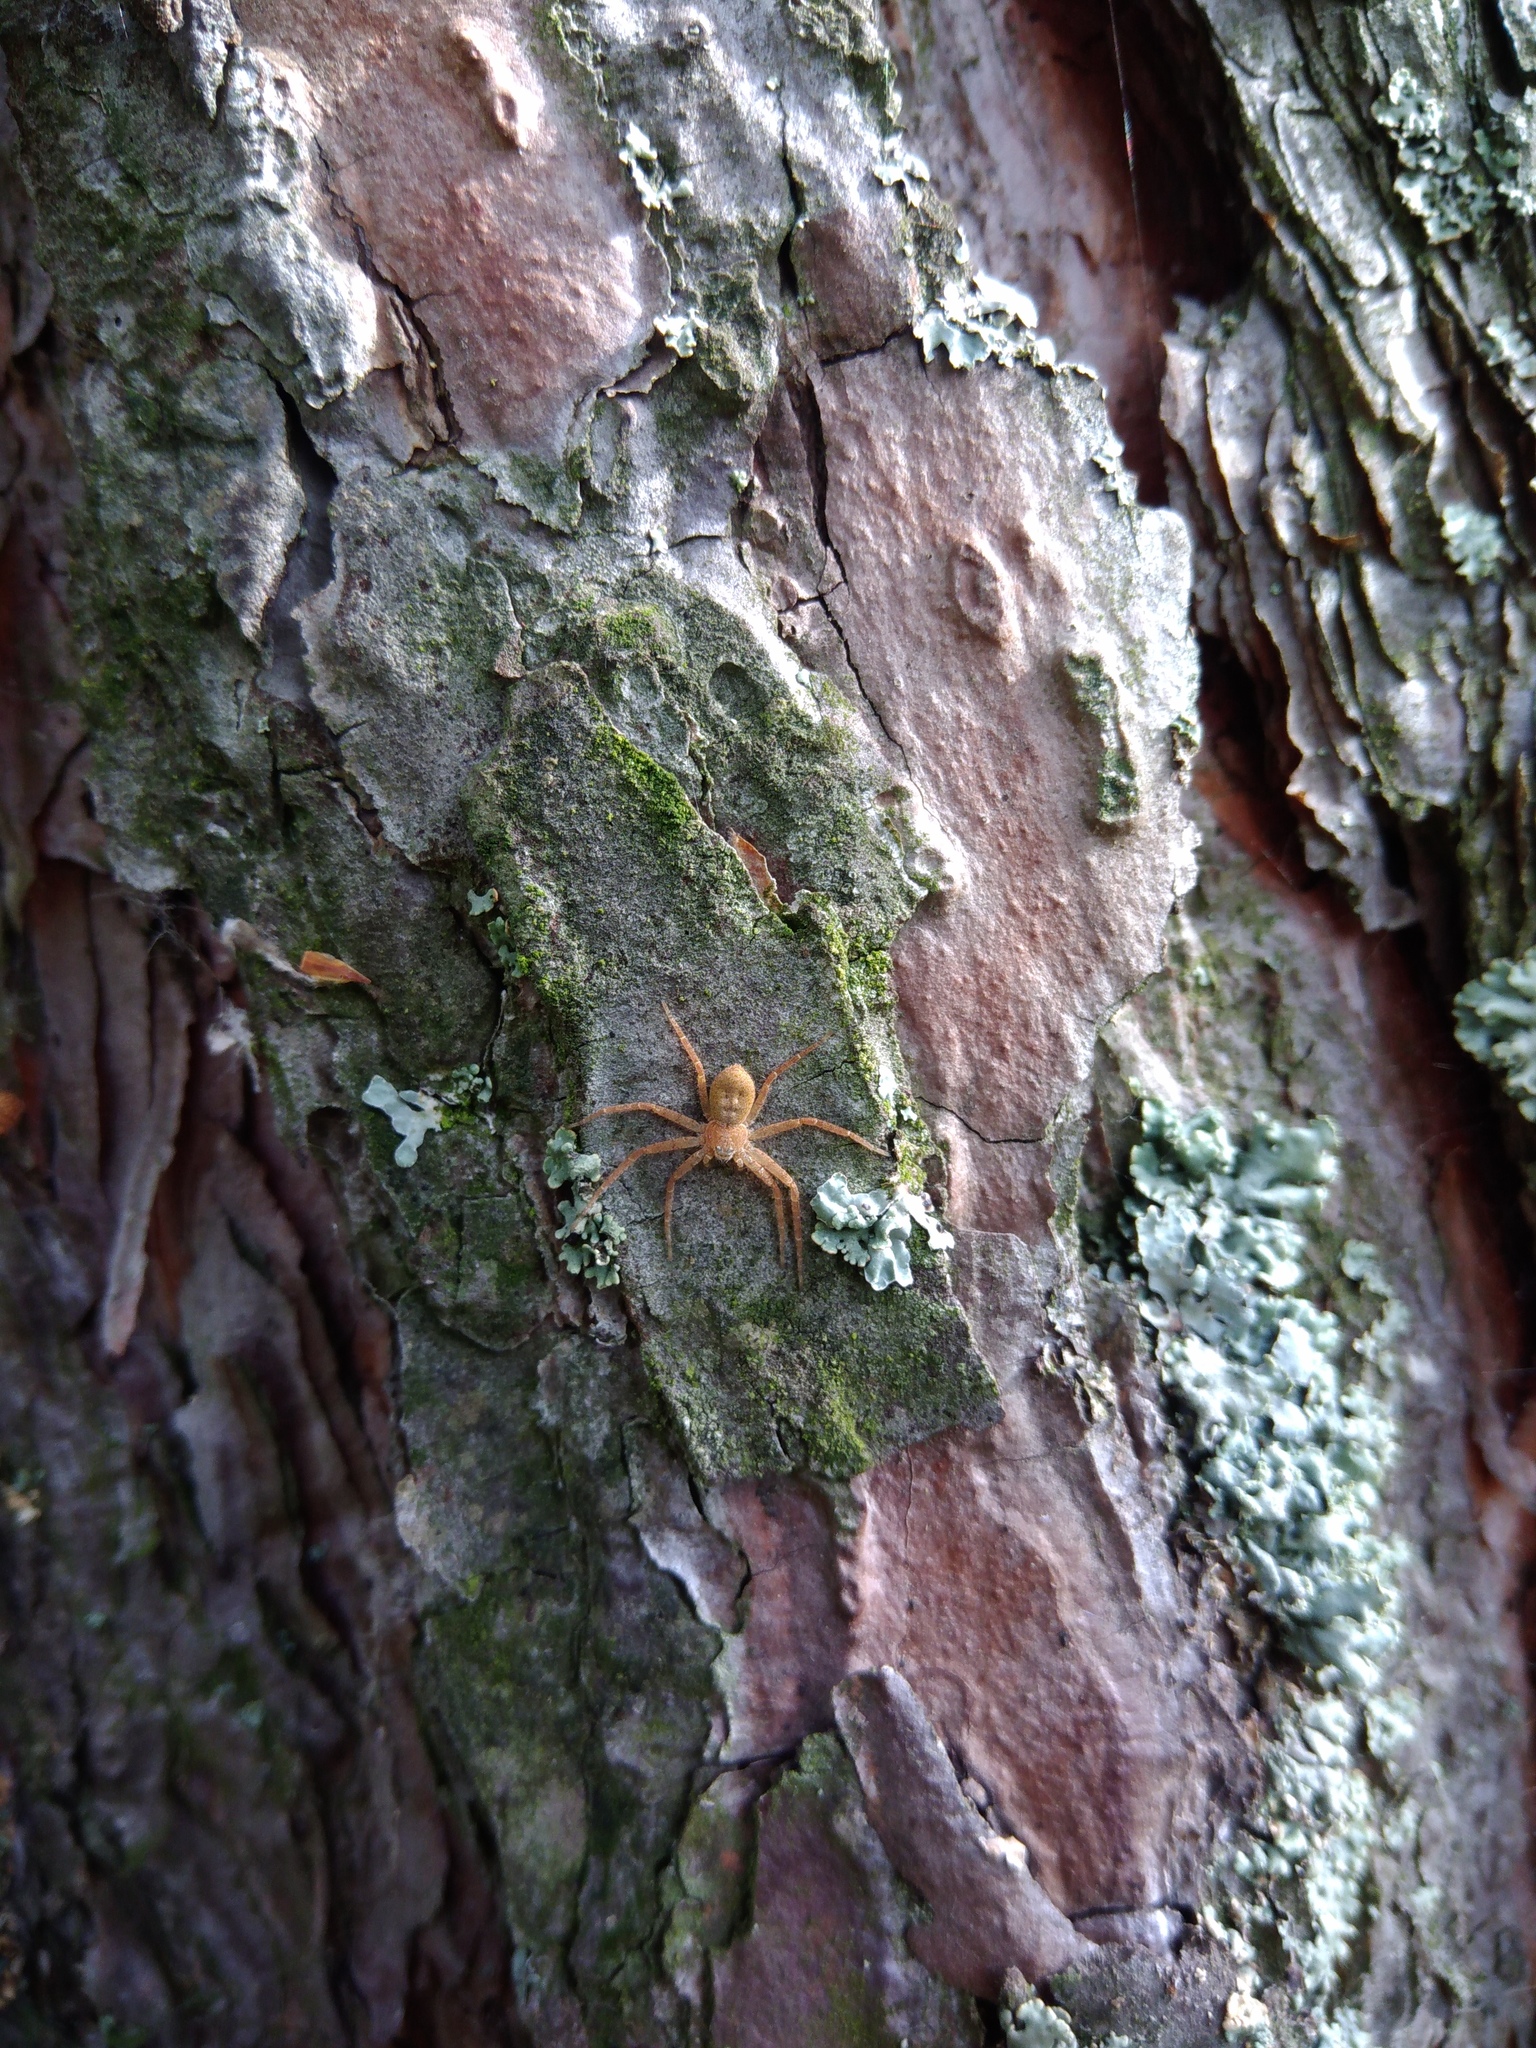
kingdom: Animalia
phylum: Arthropoda
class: Arachnida
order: Araneae
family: Philodromidae
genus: Philodromus
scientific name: Philodromus fuscomarginatus
